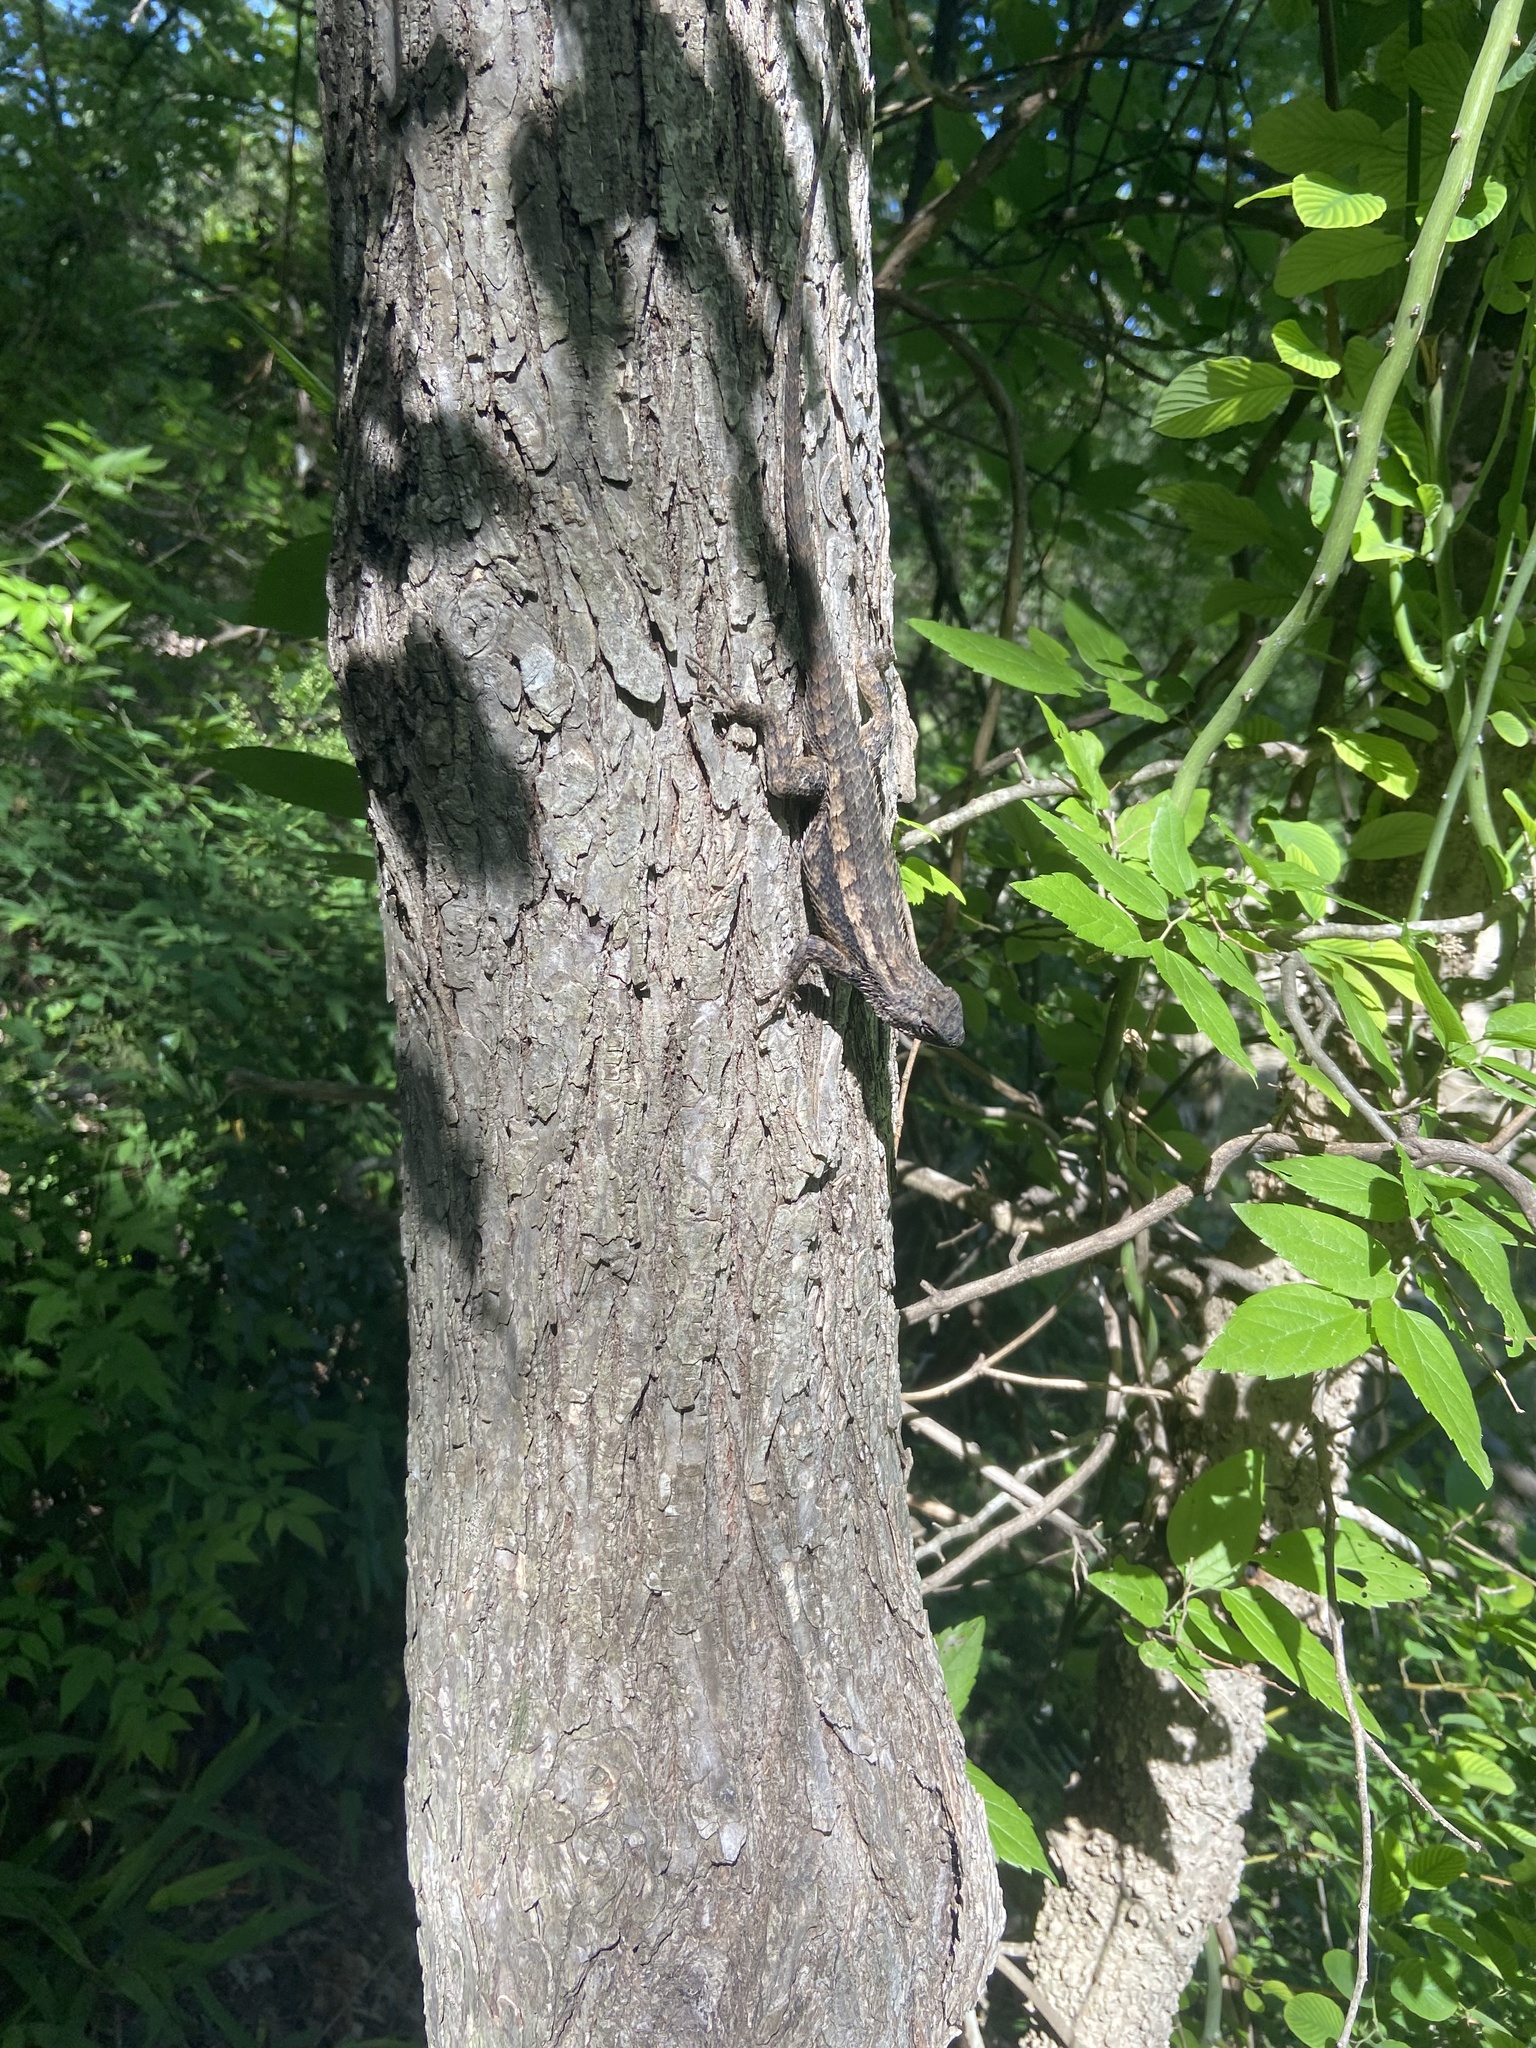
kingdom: Animalia
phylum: Chordata
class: Squamata
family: Phrynosomatidae
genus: Sceloporus
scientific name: Sceloporus olivaceus
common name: Texas spiny lizard
